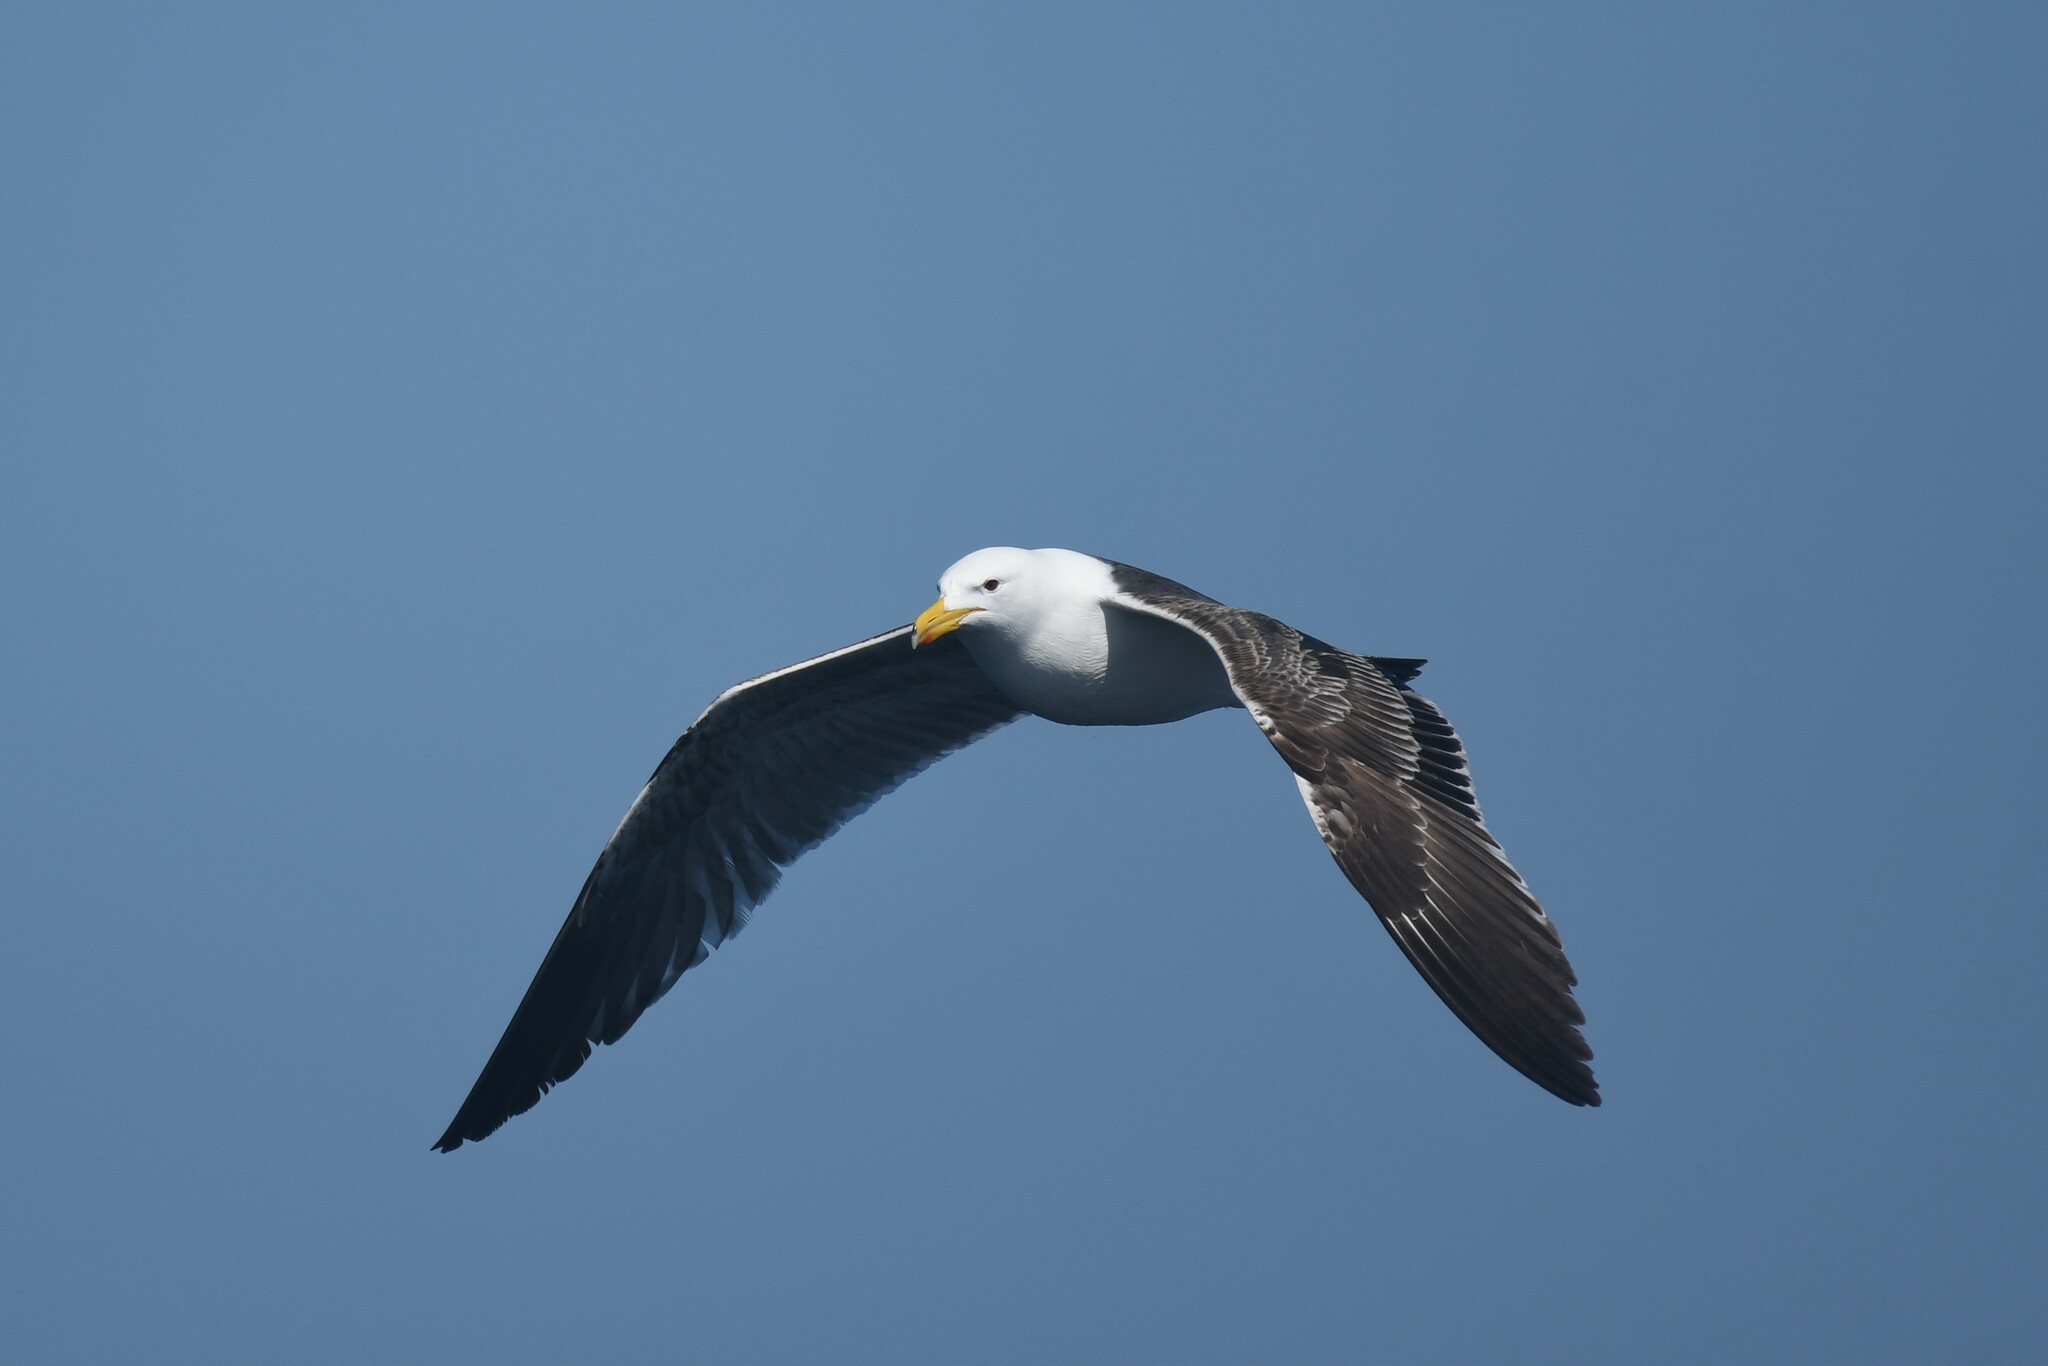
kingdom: Animalia
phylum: Chordata
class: Aves
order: Charadriiformes
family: Laridae
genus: Larus
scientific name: Larus dominicanus
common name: Kelp gull
